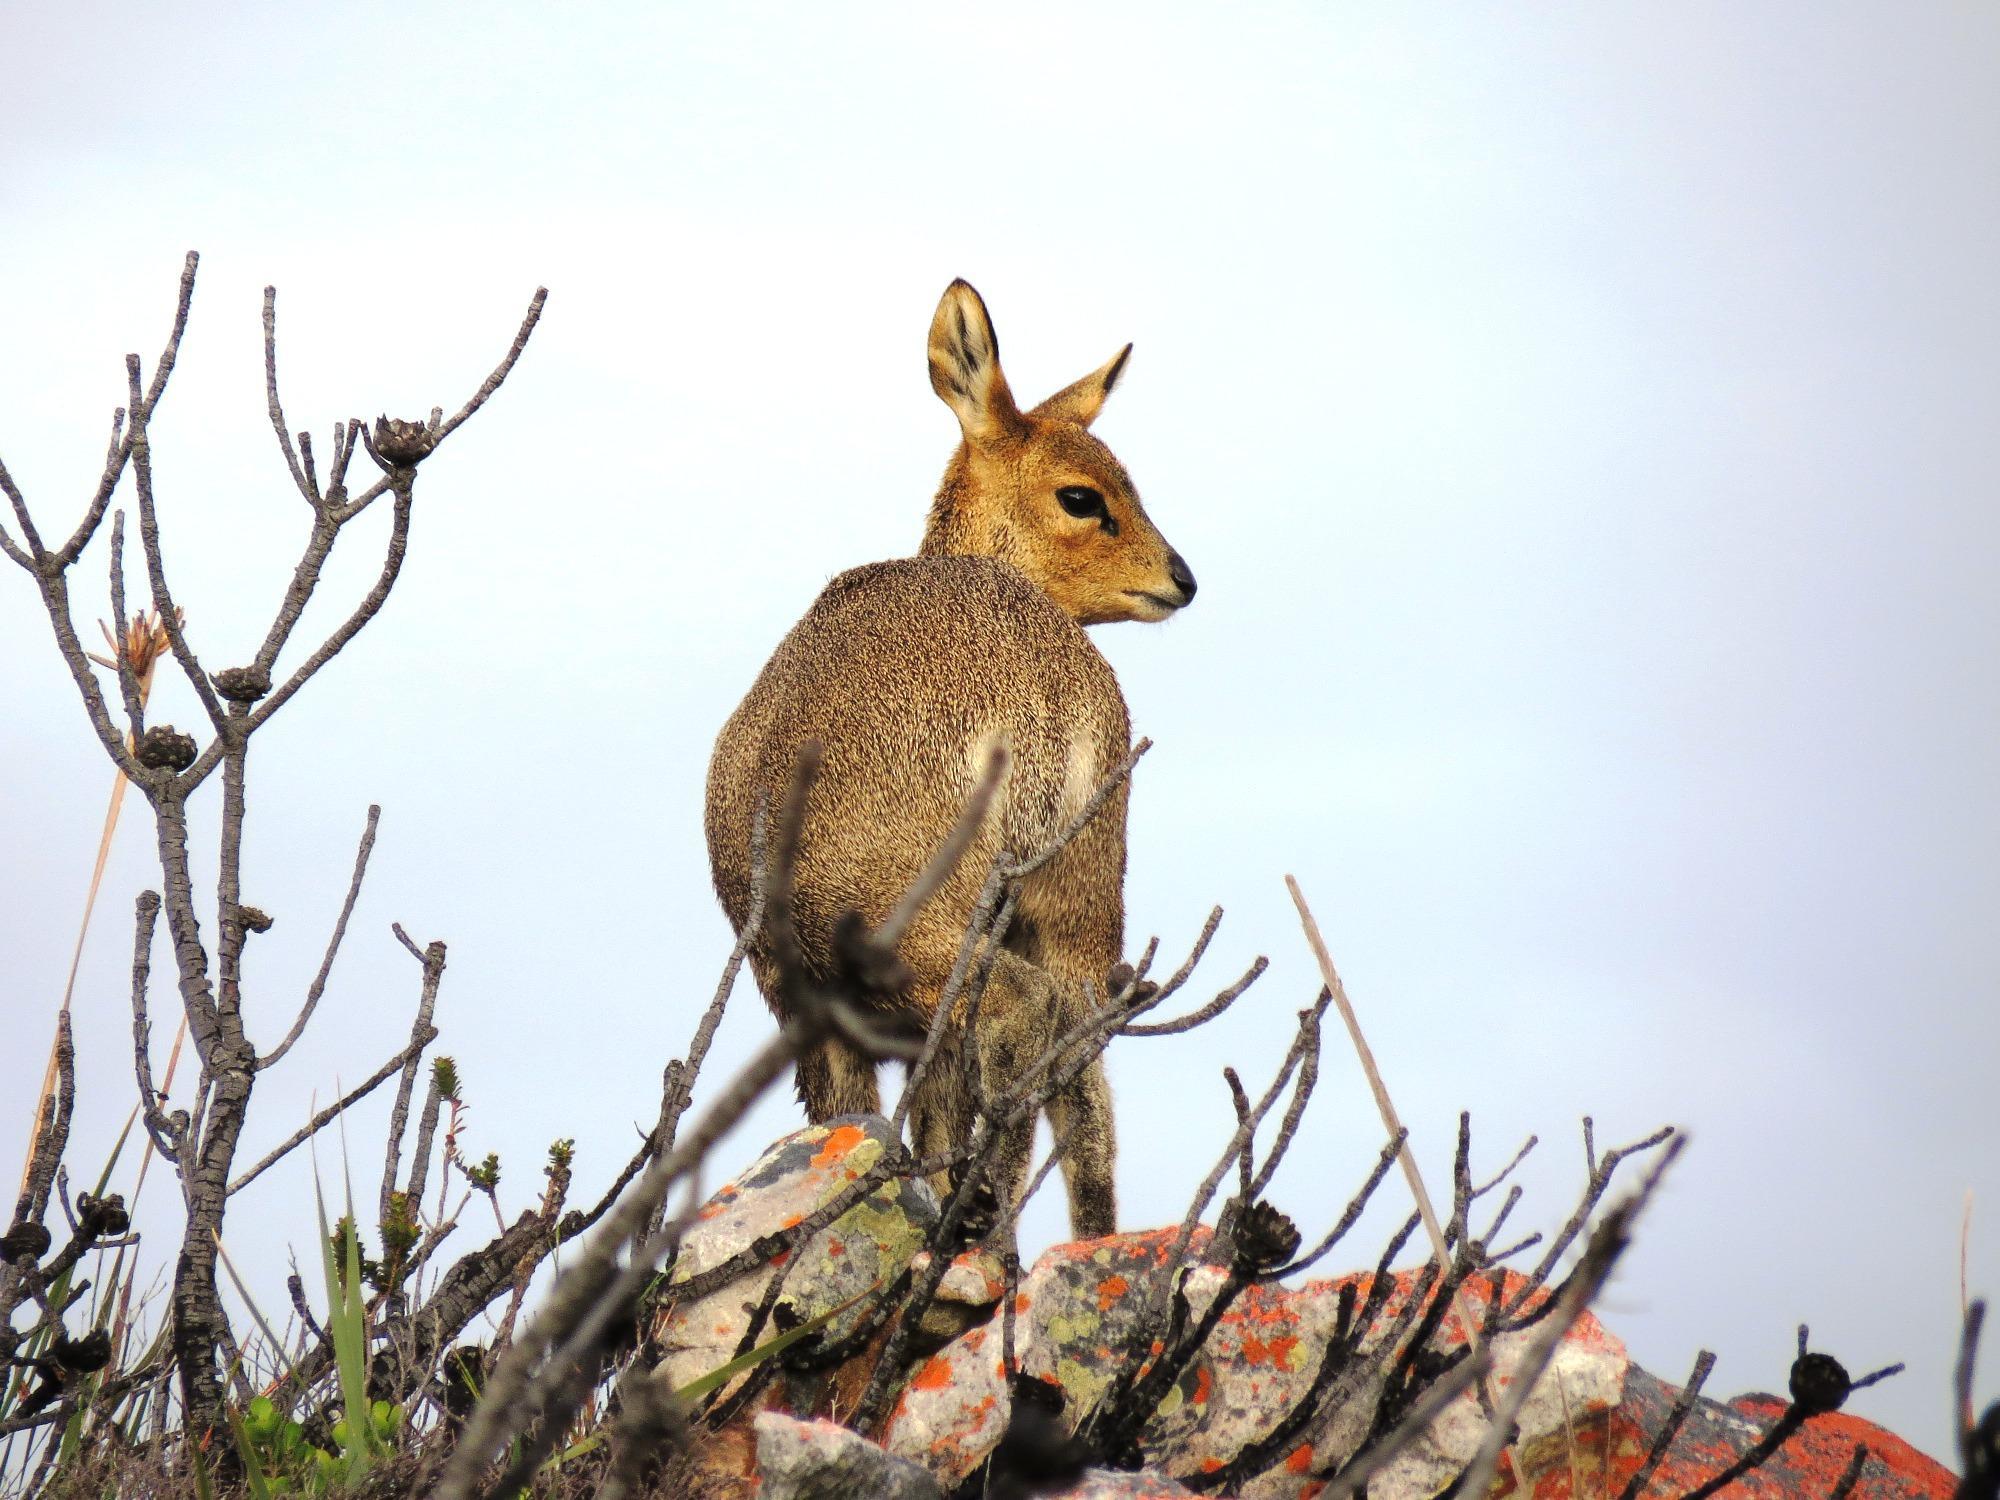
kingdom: Animalia
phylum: Chordata
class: Mammalia
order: Artiodactyla
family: Bovidae
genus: Oreotragus
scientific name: Oreotragus oreotragus
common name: Klipspringer
